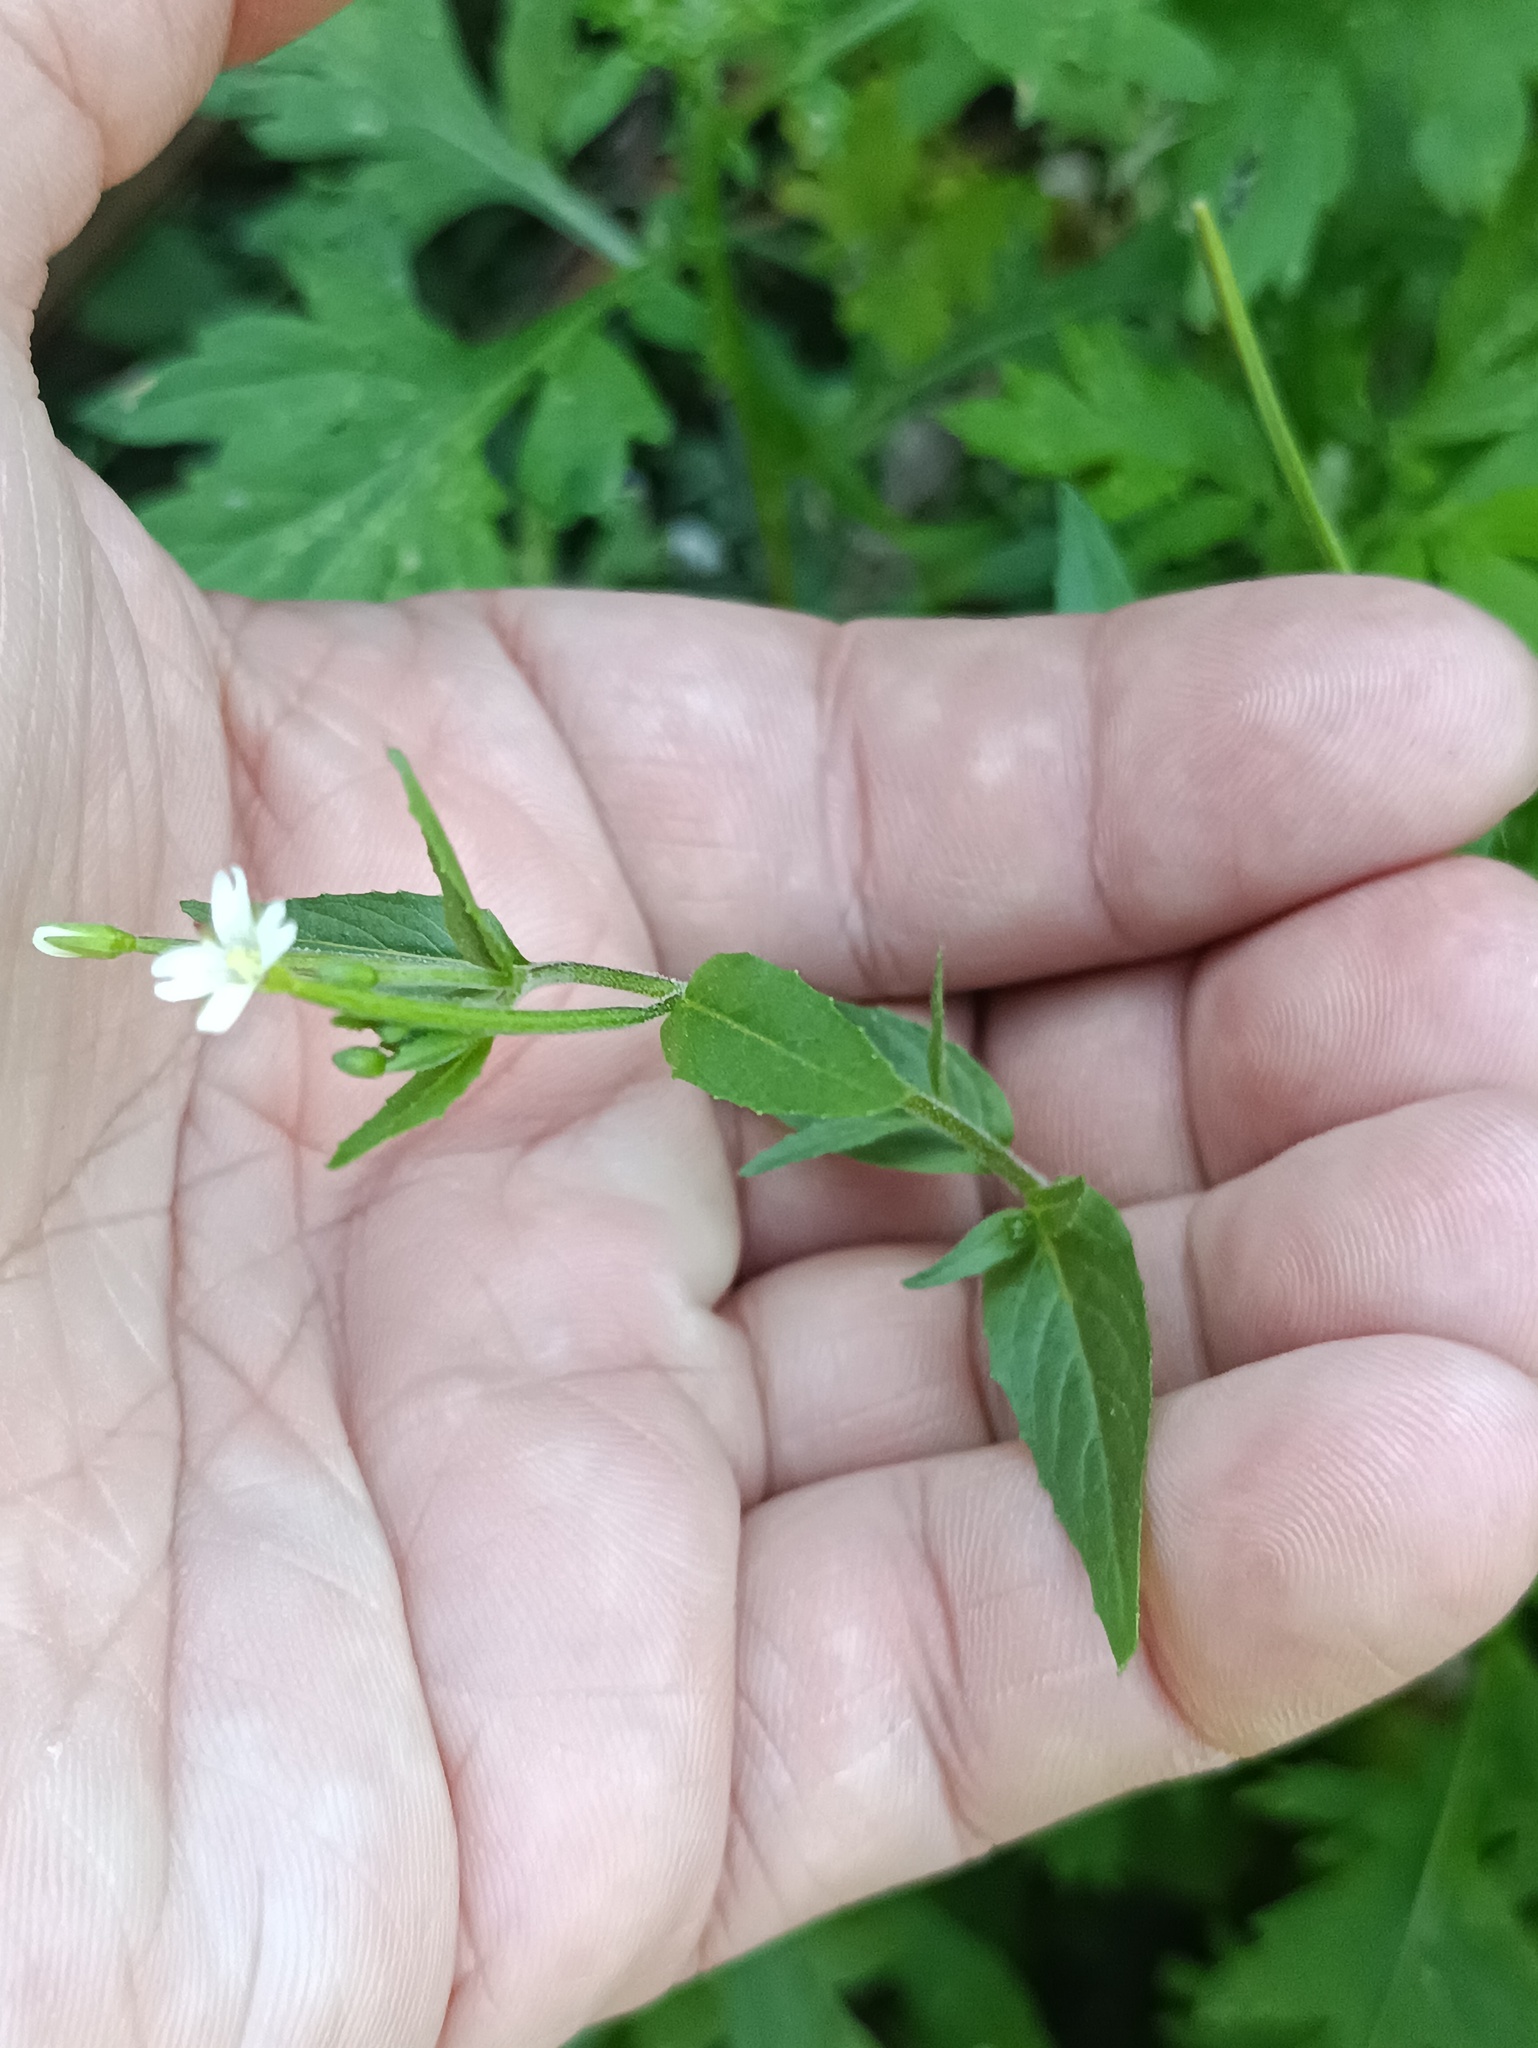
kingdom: Plantae
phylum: Tracheophyta
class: Magnoliopsida
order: Myrtales
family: Onagraceae
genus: Epilobium
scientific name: Epilobium pseudorubescens
